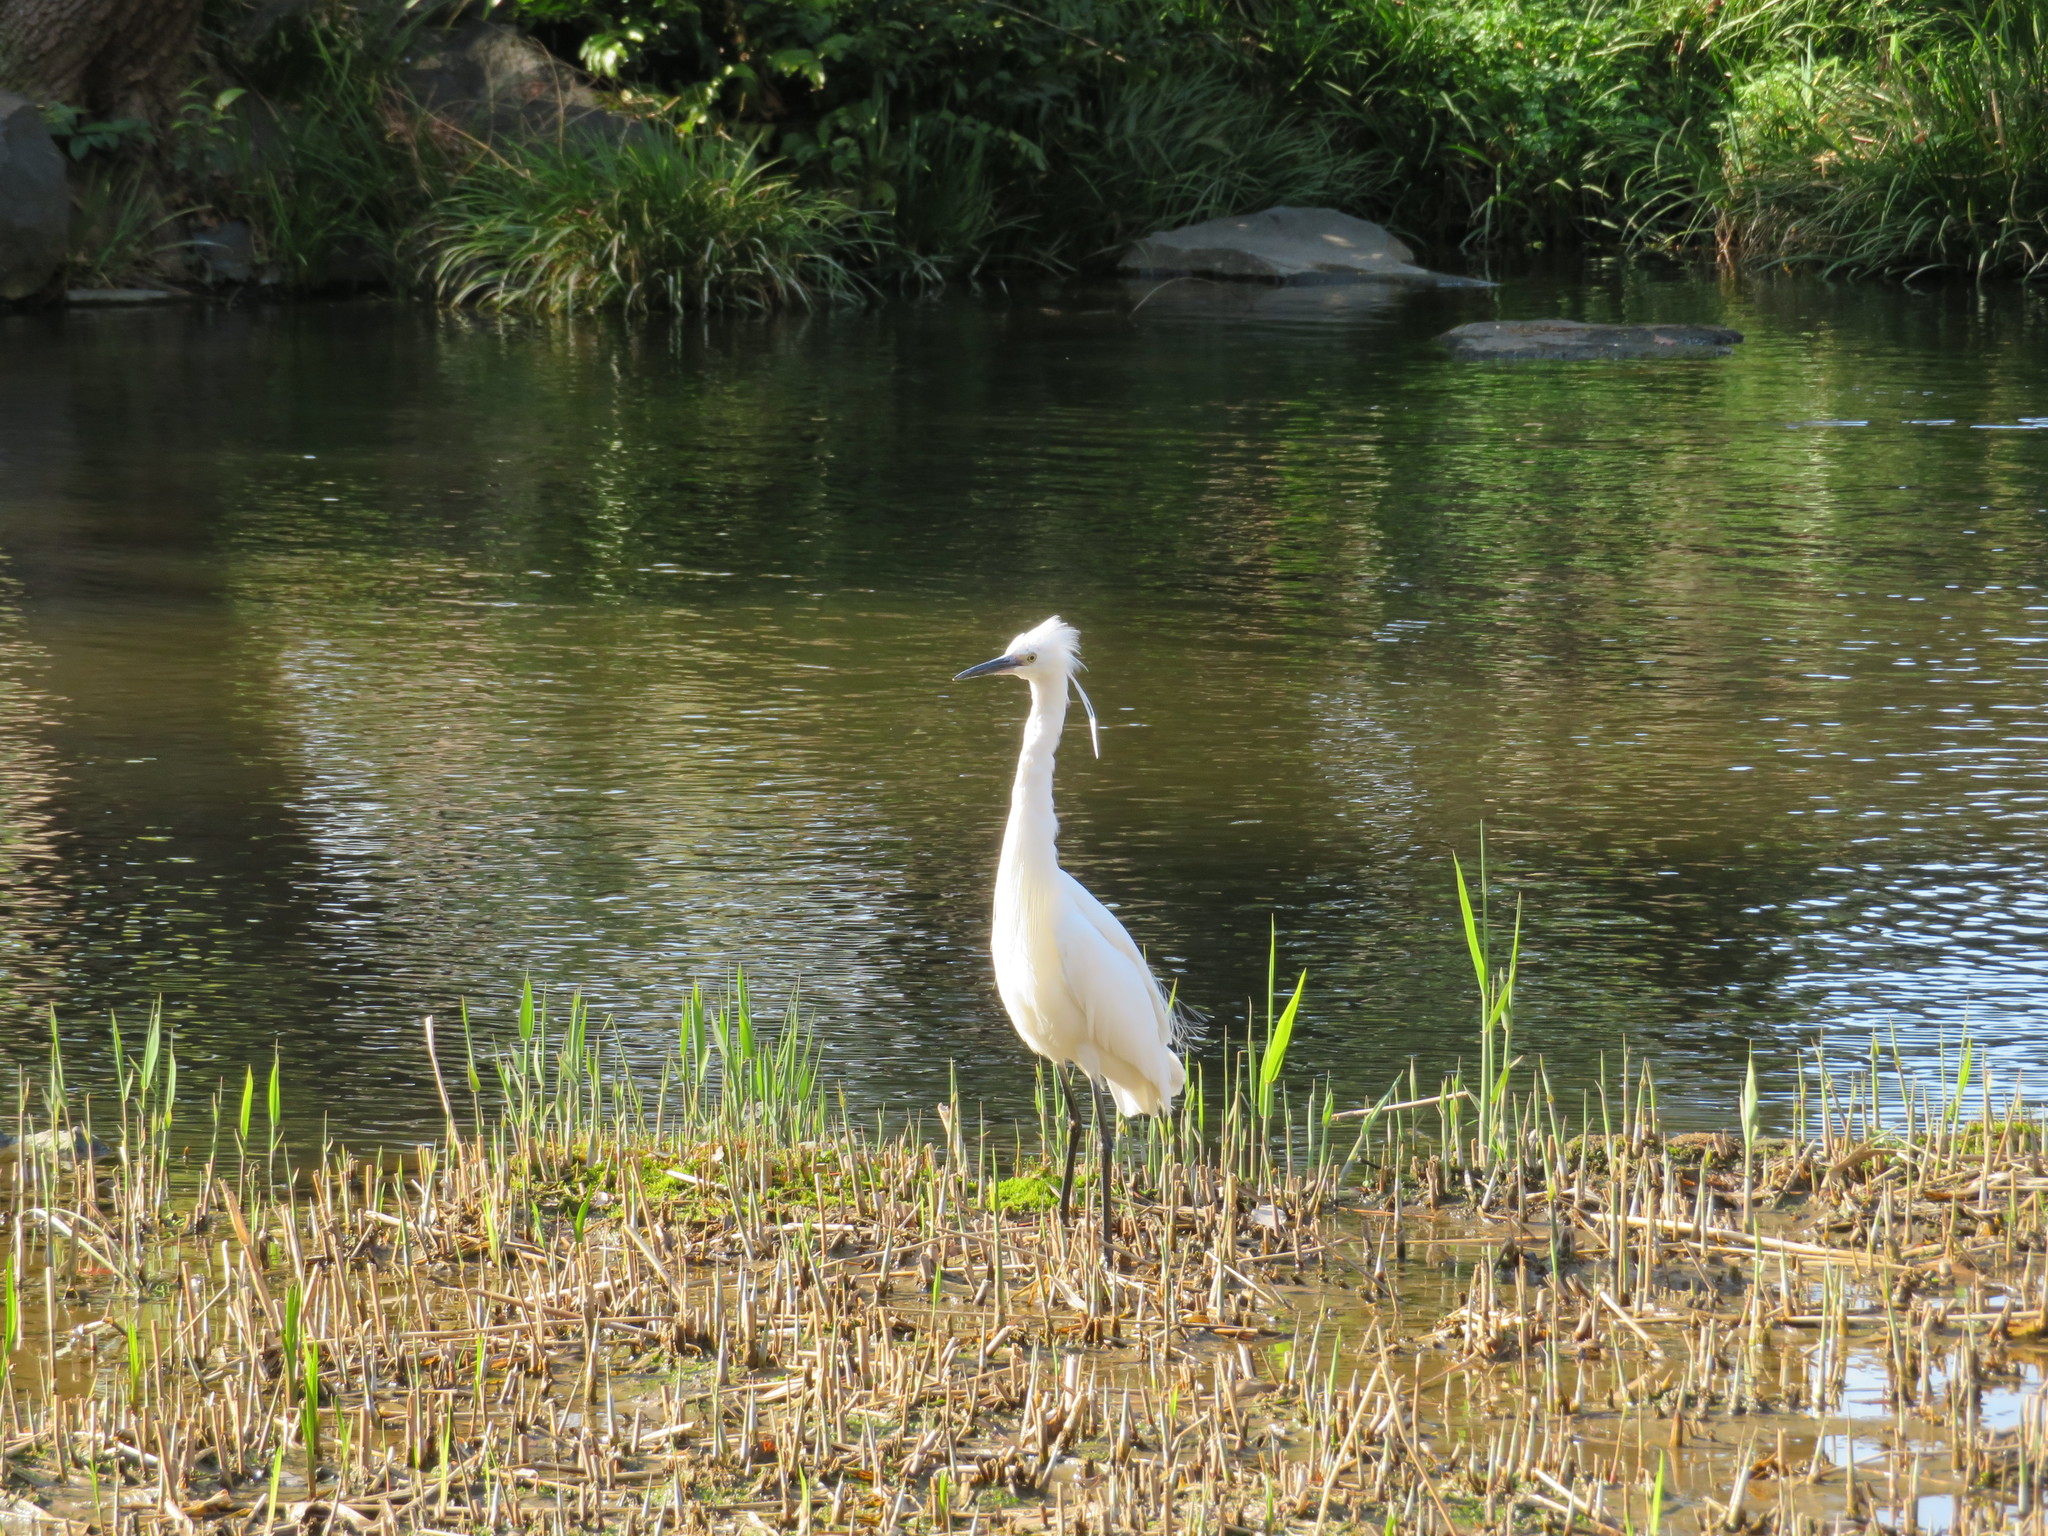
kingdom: Animalia
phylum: Chordata
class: Aves
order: Pelecaniformes
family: Ardeidae
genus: Egretta
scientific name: Egretta garzetta
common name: Little egret
